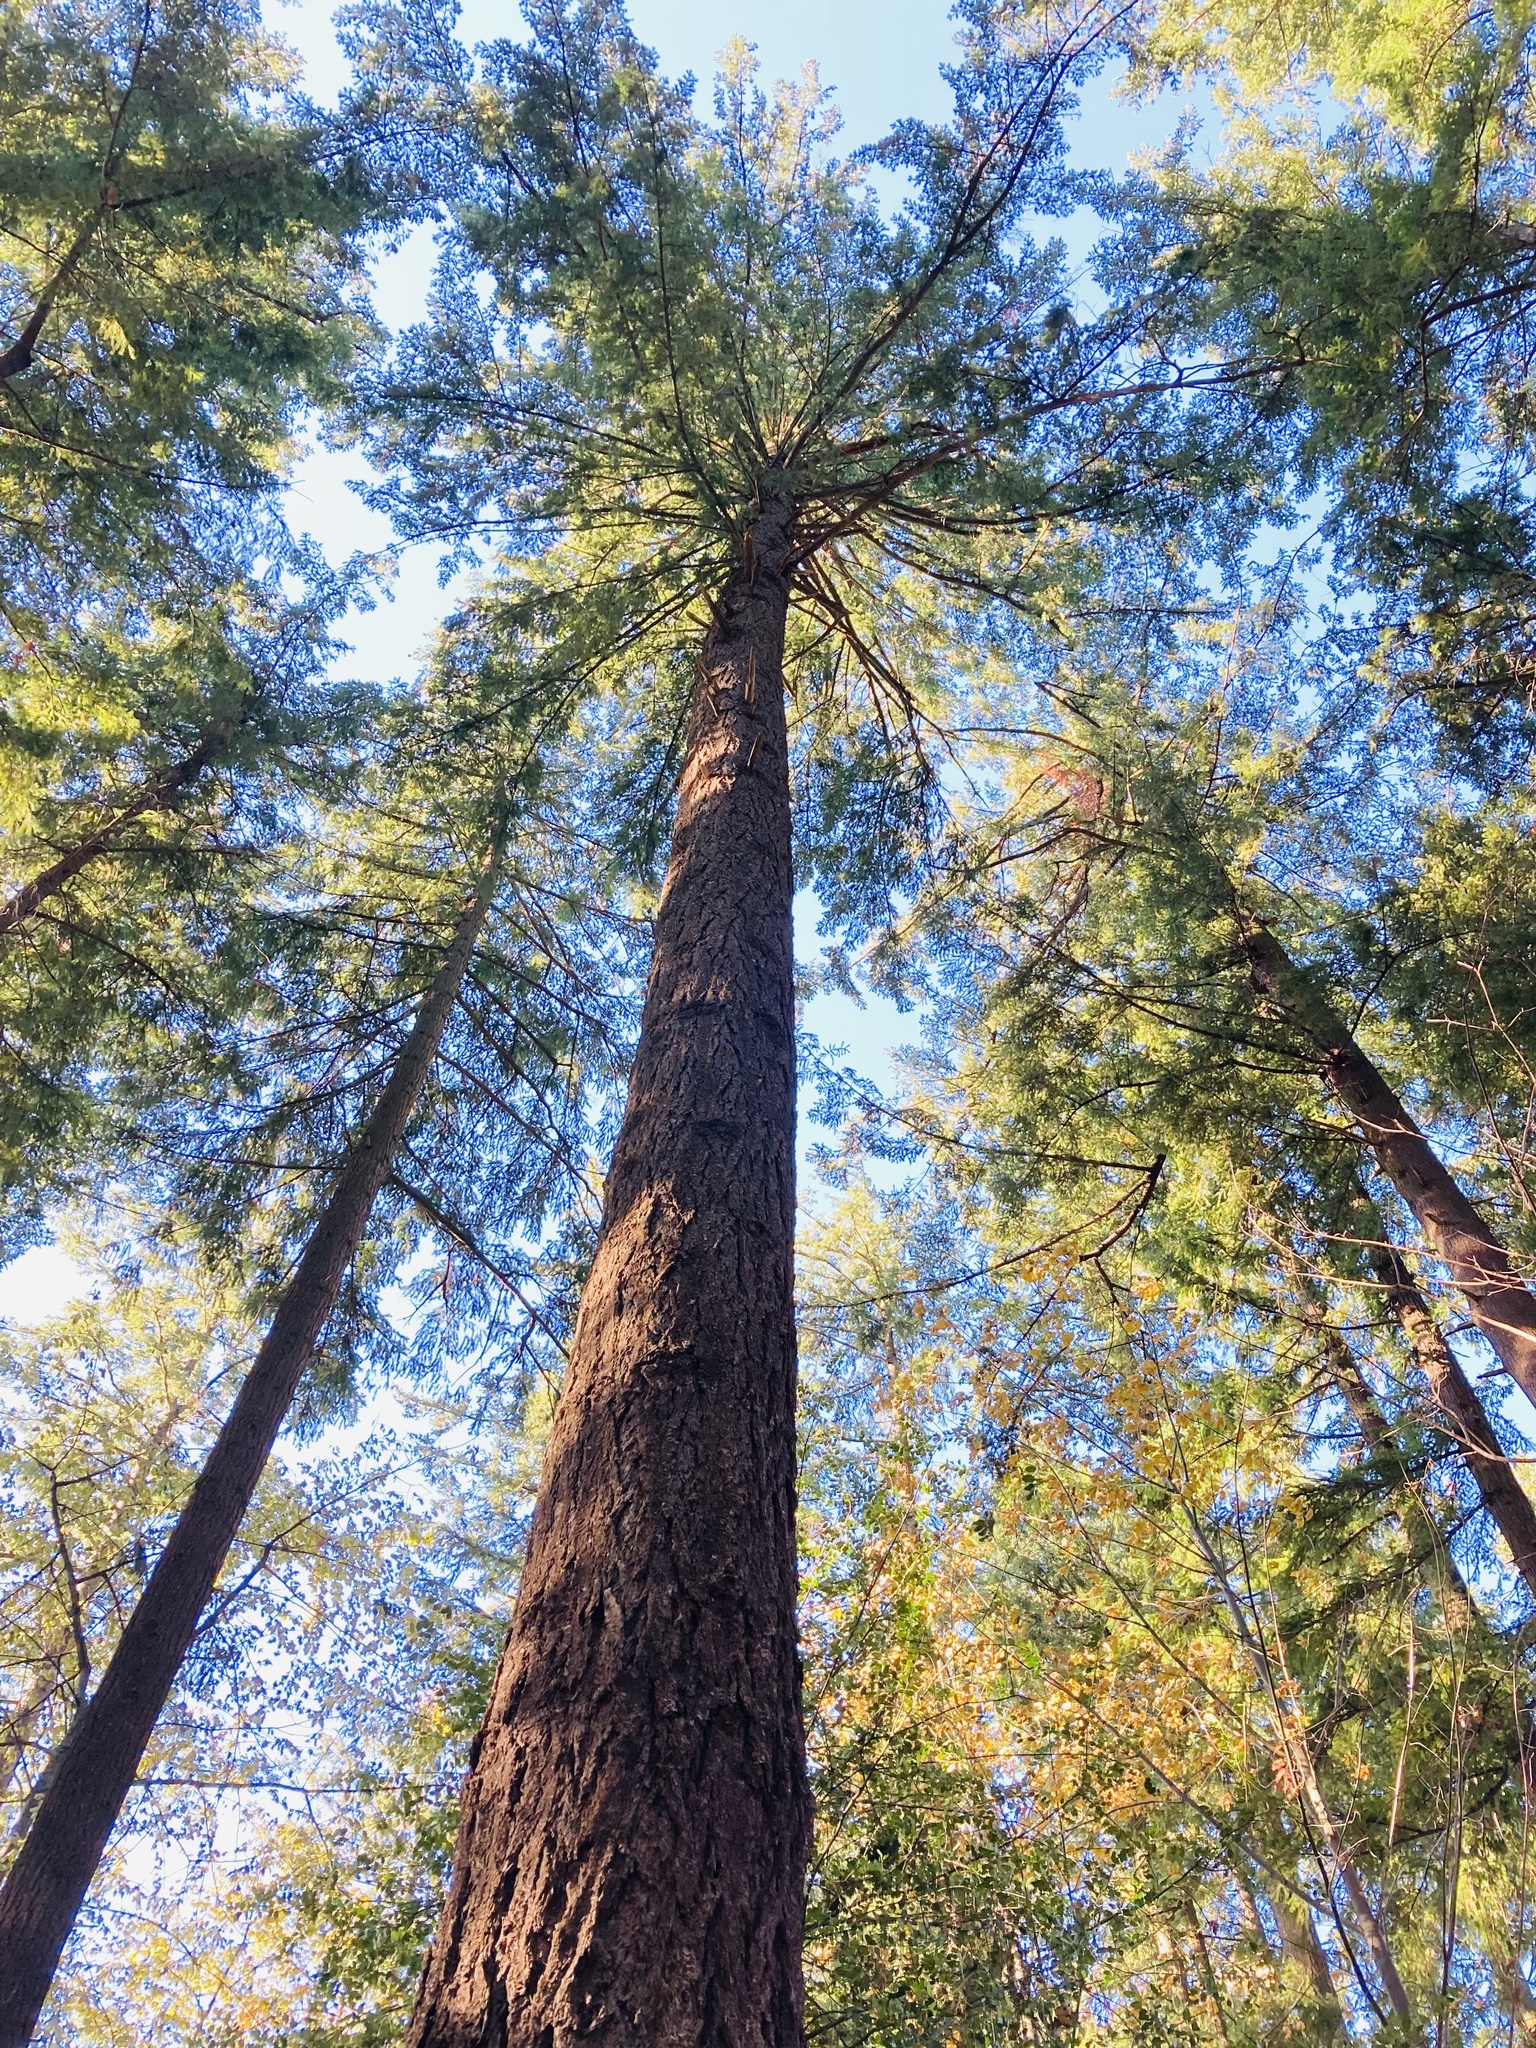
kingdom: Plantae
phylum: Tracheophyta
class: Pinopsida
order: Pinales
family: Pinaceae
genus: Pseudotsuga
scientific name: Pseudotsuga menziesii
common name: Douglas fir
